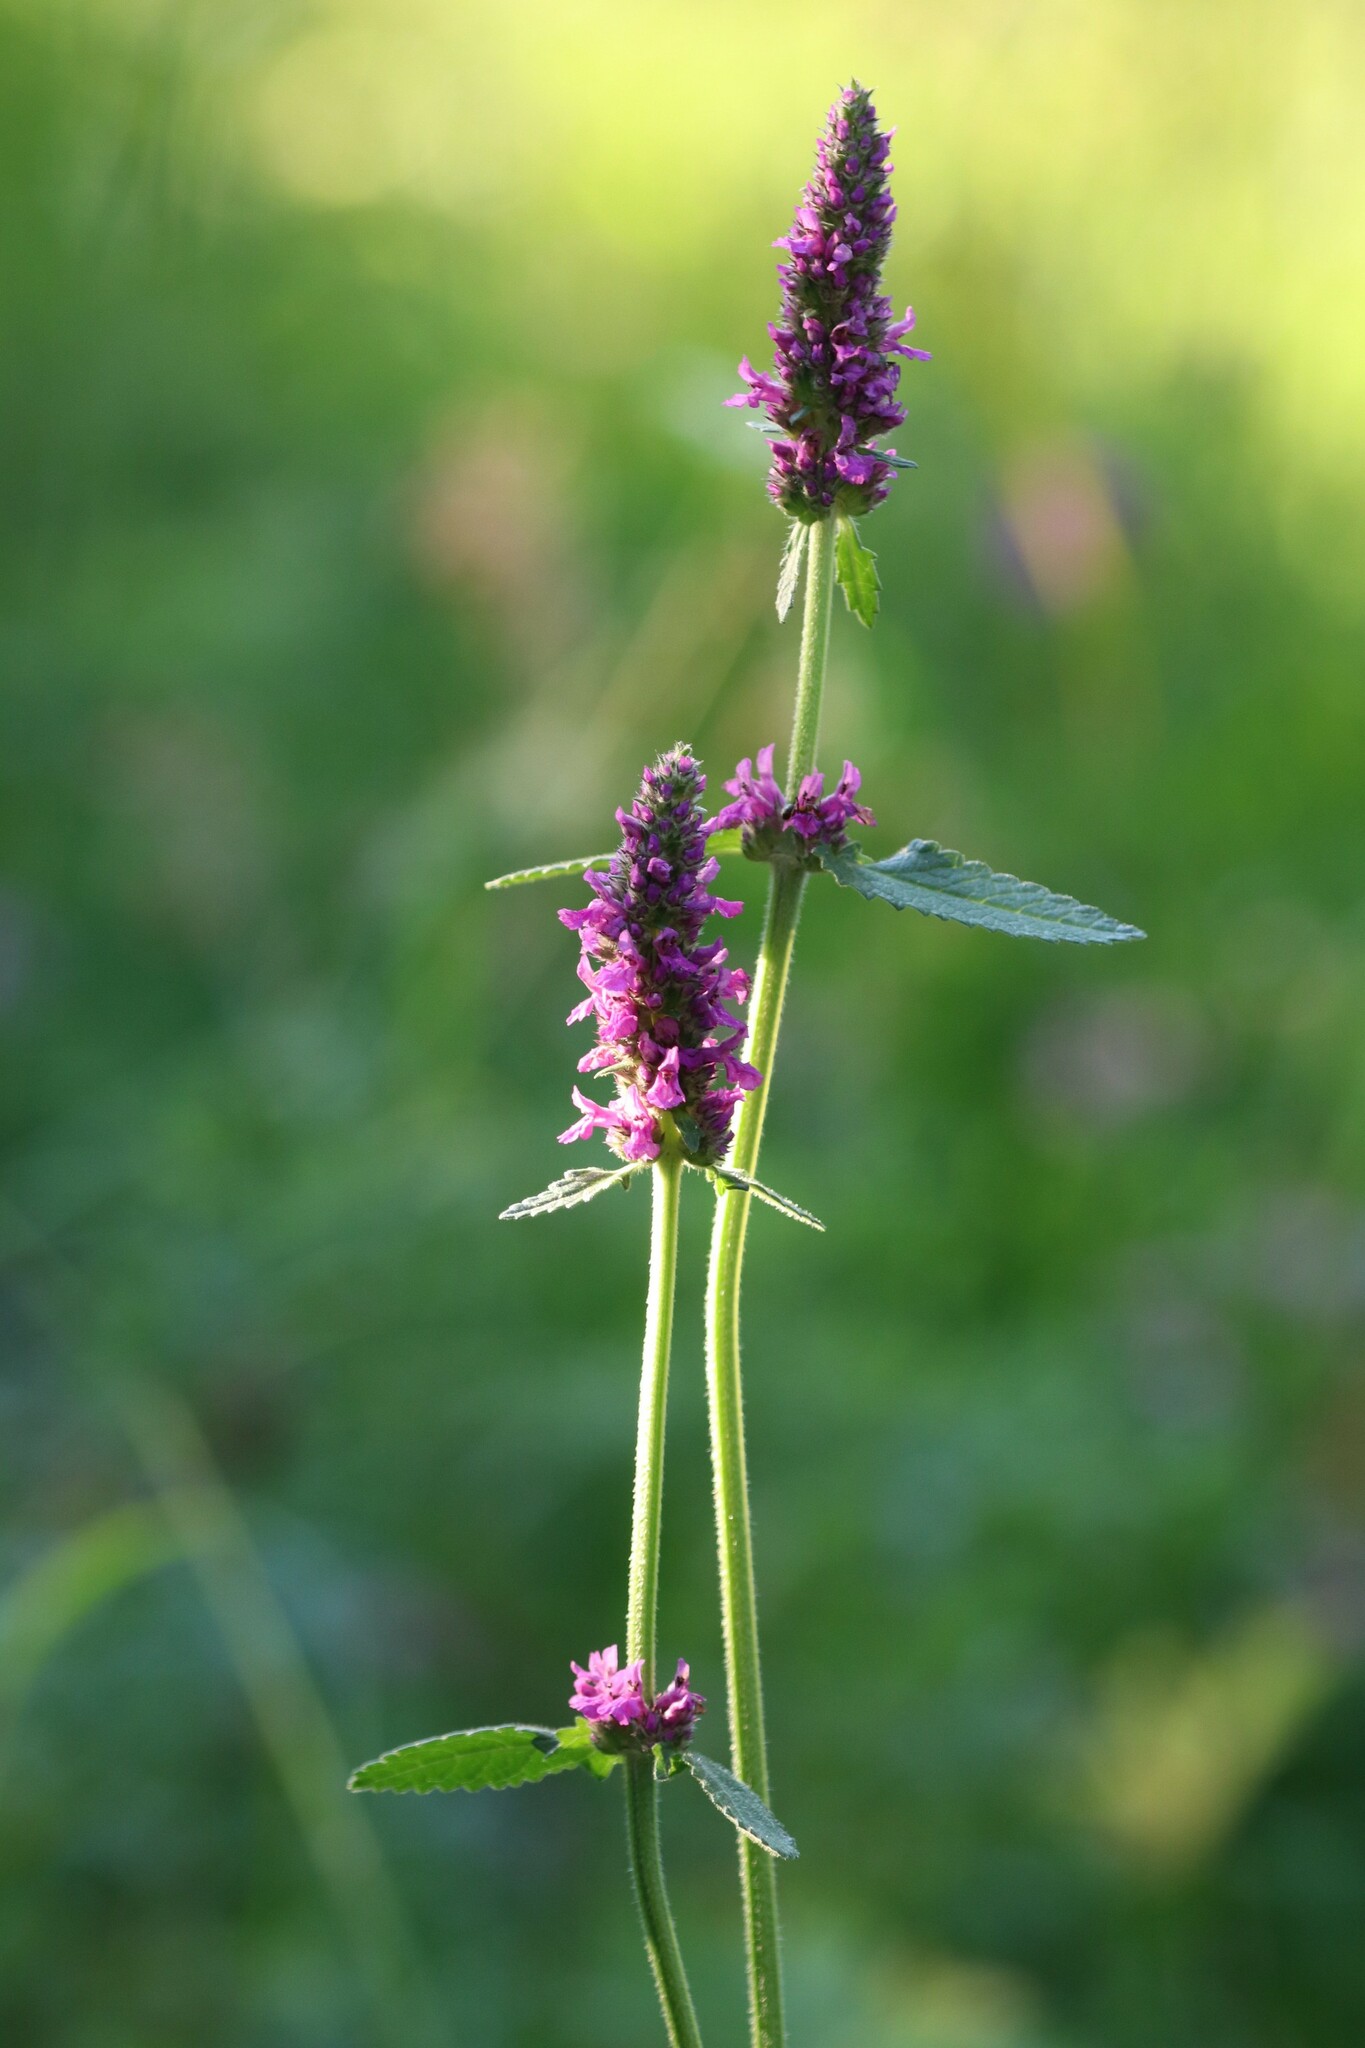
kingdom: Plantae
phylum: Tracheophyta
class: Magnoliopsida
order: Lamiales
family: Lamiaceae
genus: Betonica
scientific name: Betonica officinalis
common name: Bishop's-wort
